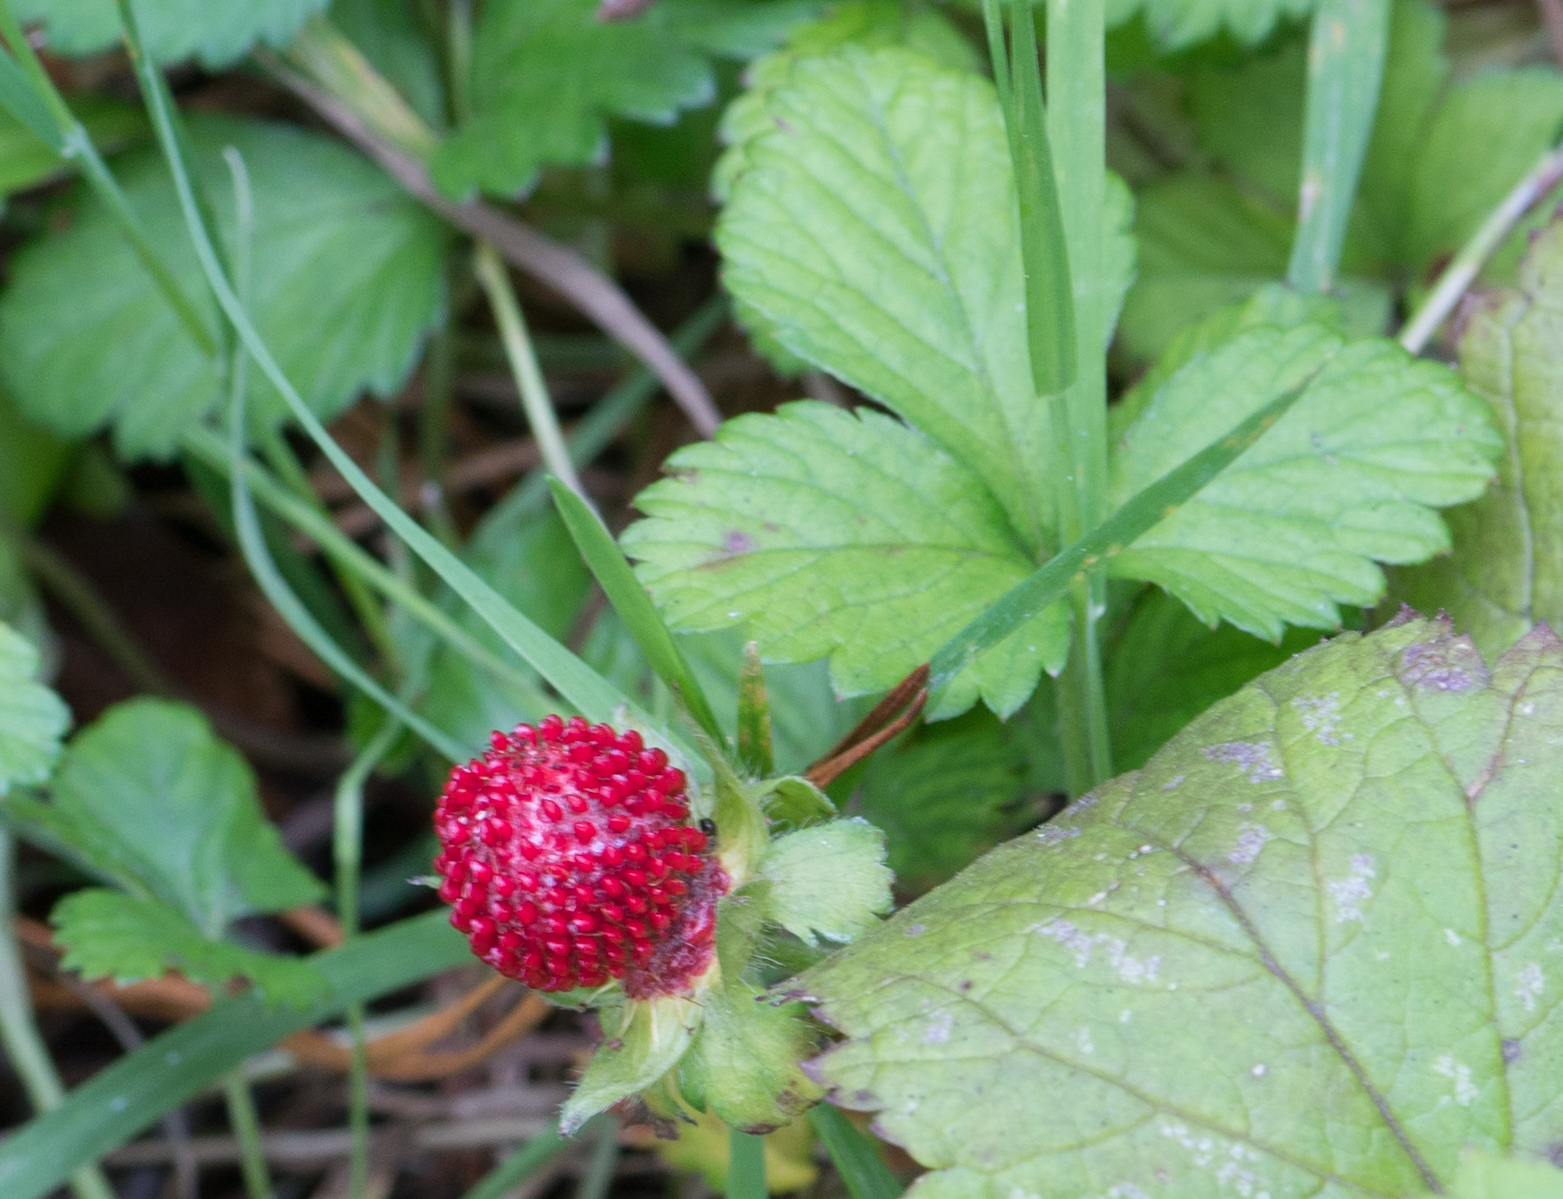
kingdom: Plantae
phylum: Tracheophyta
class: Magnoliopsida
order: Rosales
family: Rosaceae
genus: Potentilla
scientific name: Potentilla indica
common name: Yellow-flowered strawberry
